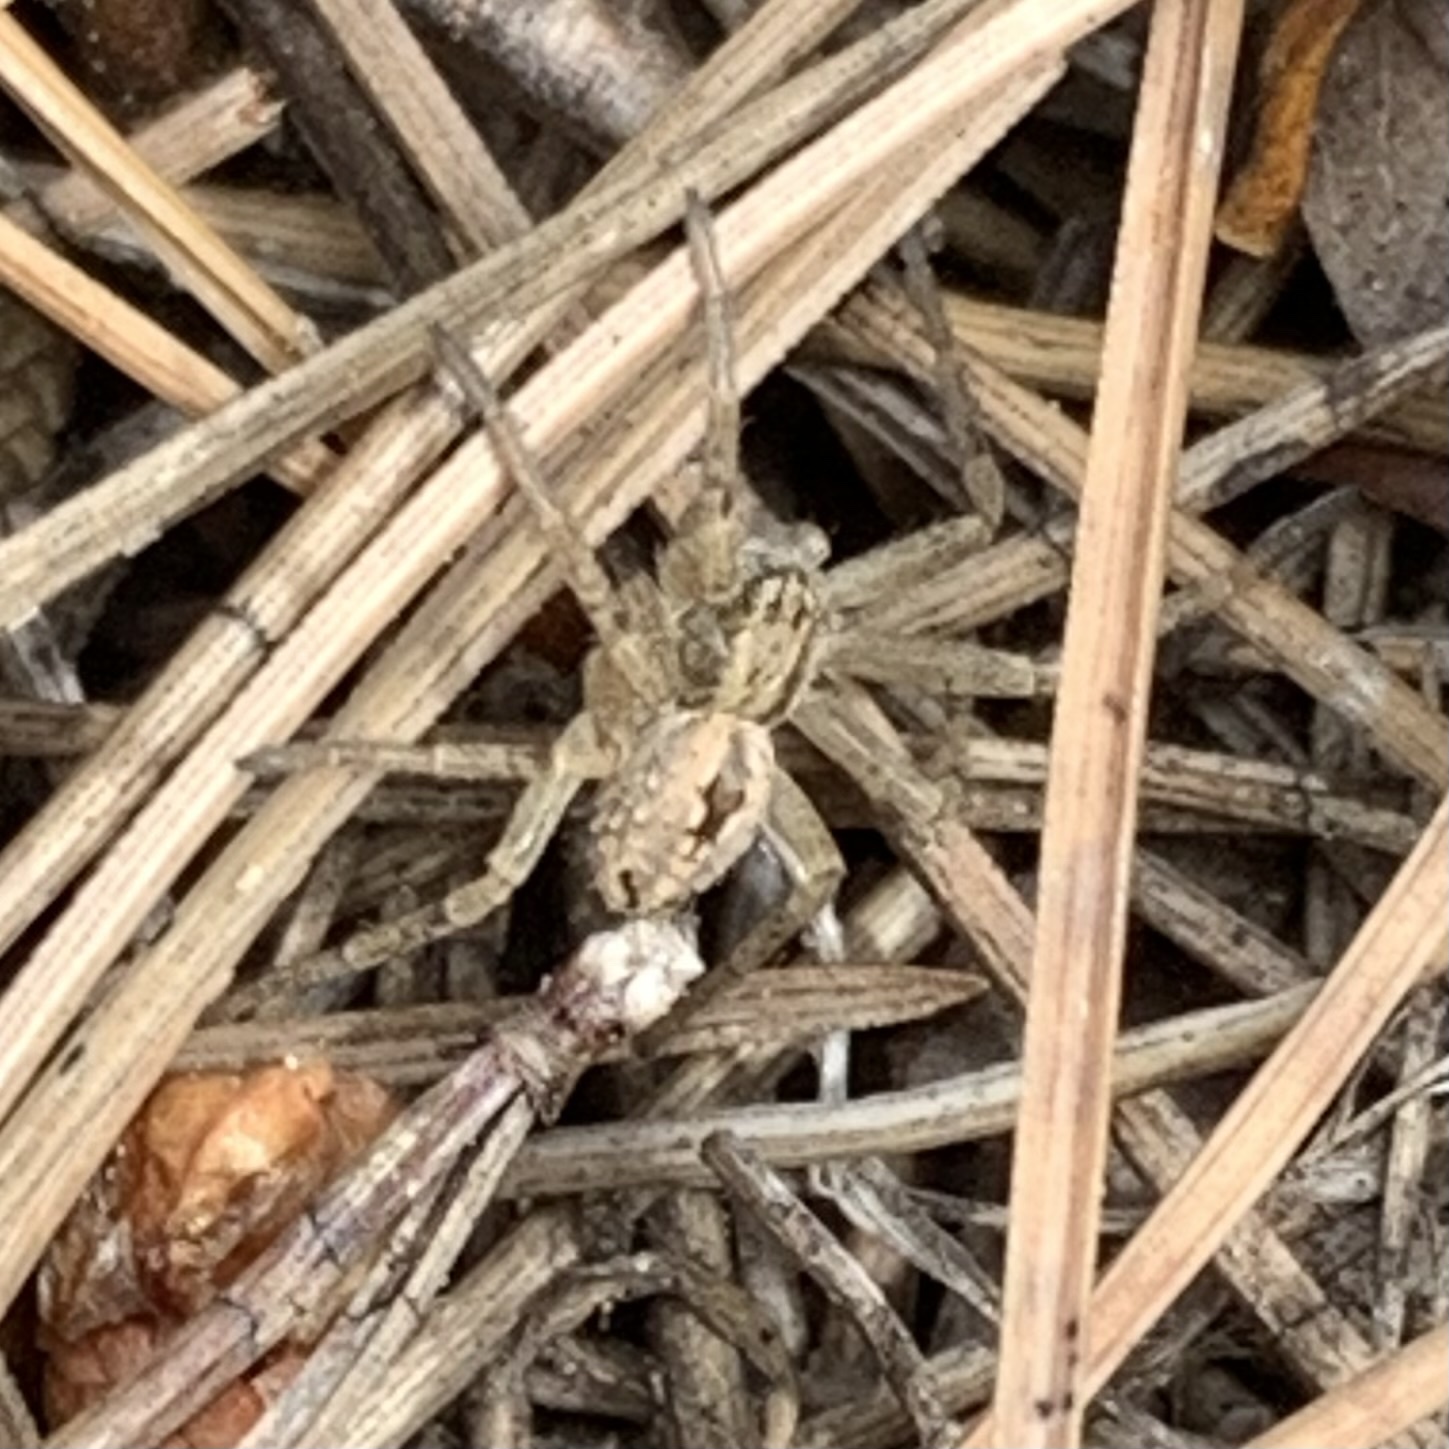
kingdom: Animalia
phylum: Arthropoda
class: Arachnida
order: Araneae
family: Philodromidae
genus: Thanatus
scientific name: Thanatus
